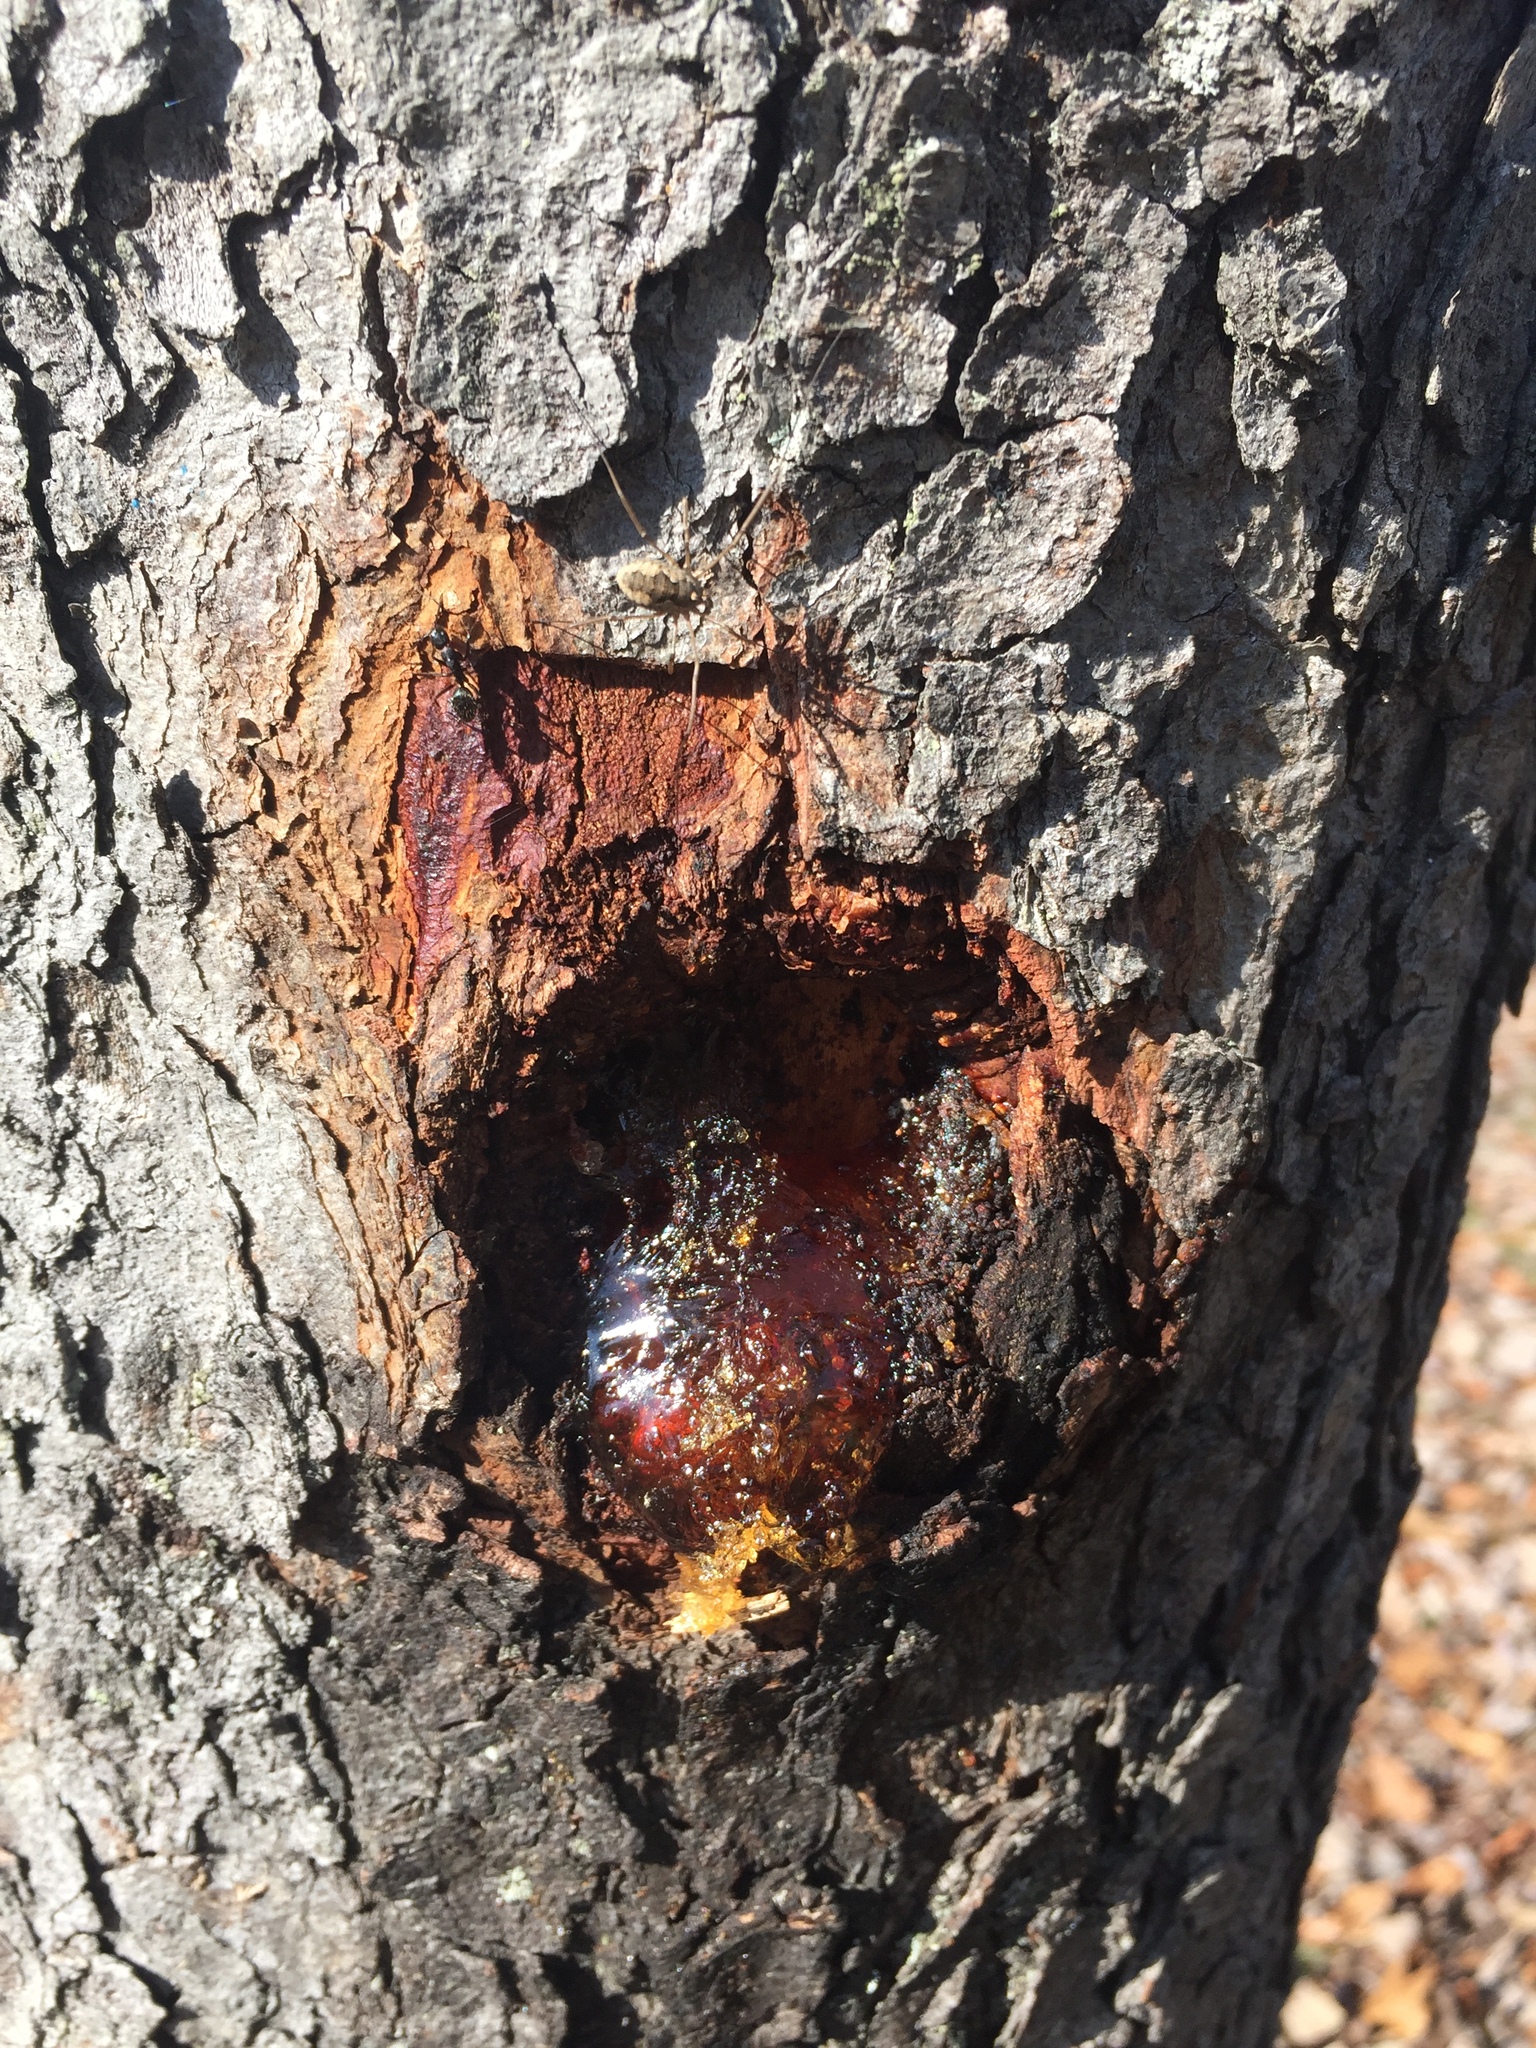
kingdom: Animalia
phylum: Arthropoda
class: Arachnida
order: Opiliones
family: Phalangiidae
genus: Phalangium
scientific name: Phalangium opilio
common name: Daddy longleg
